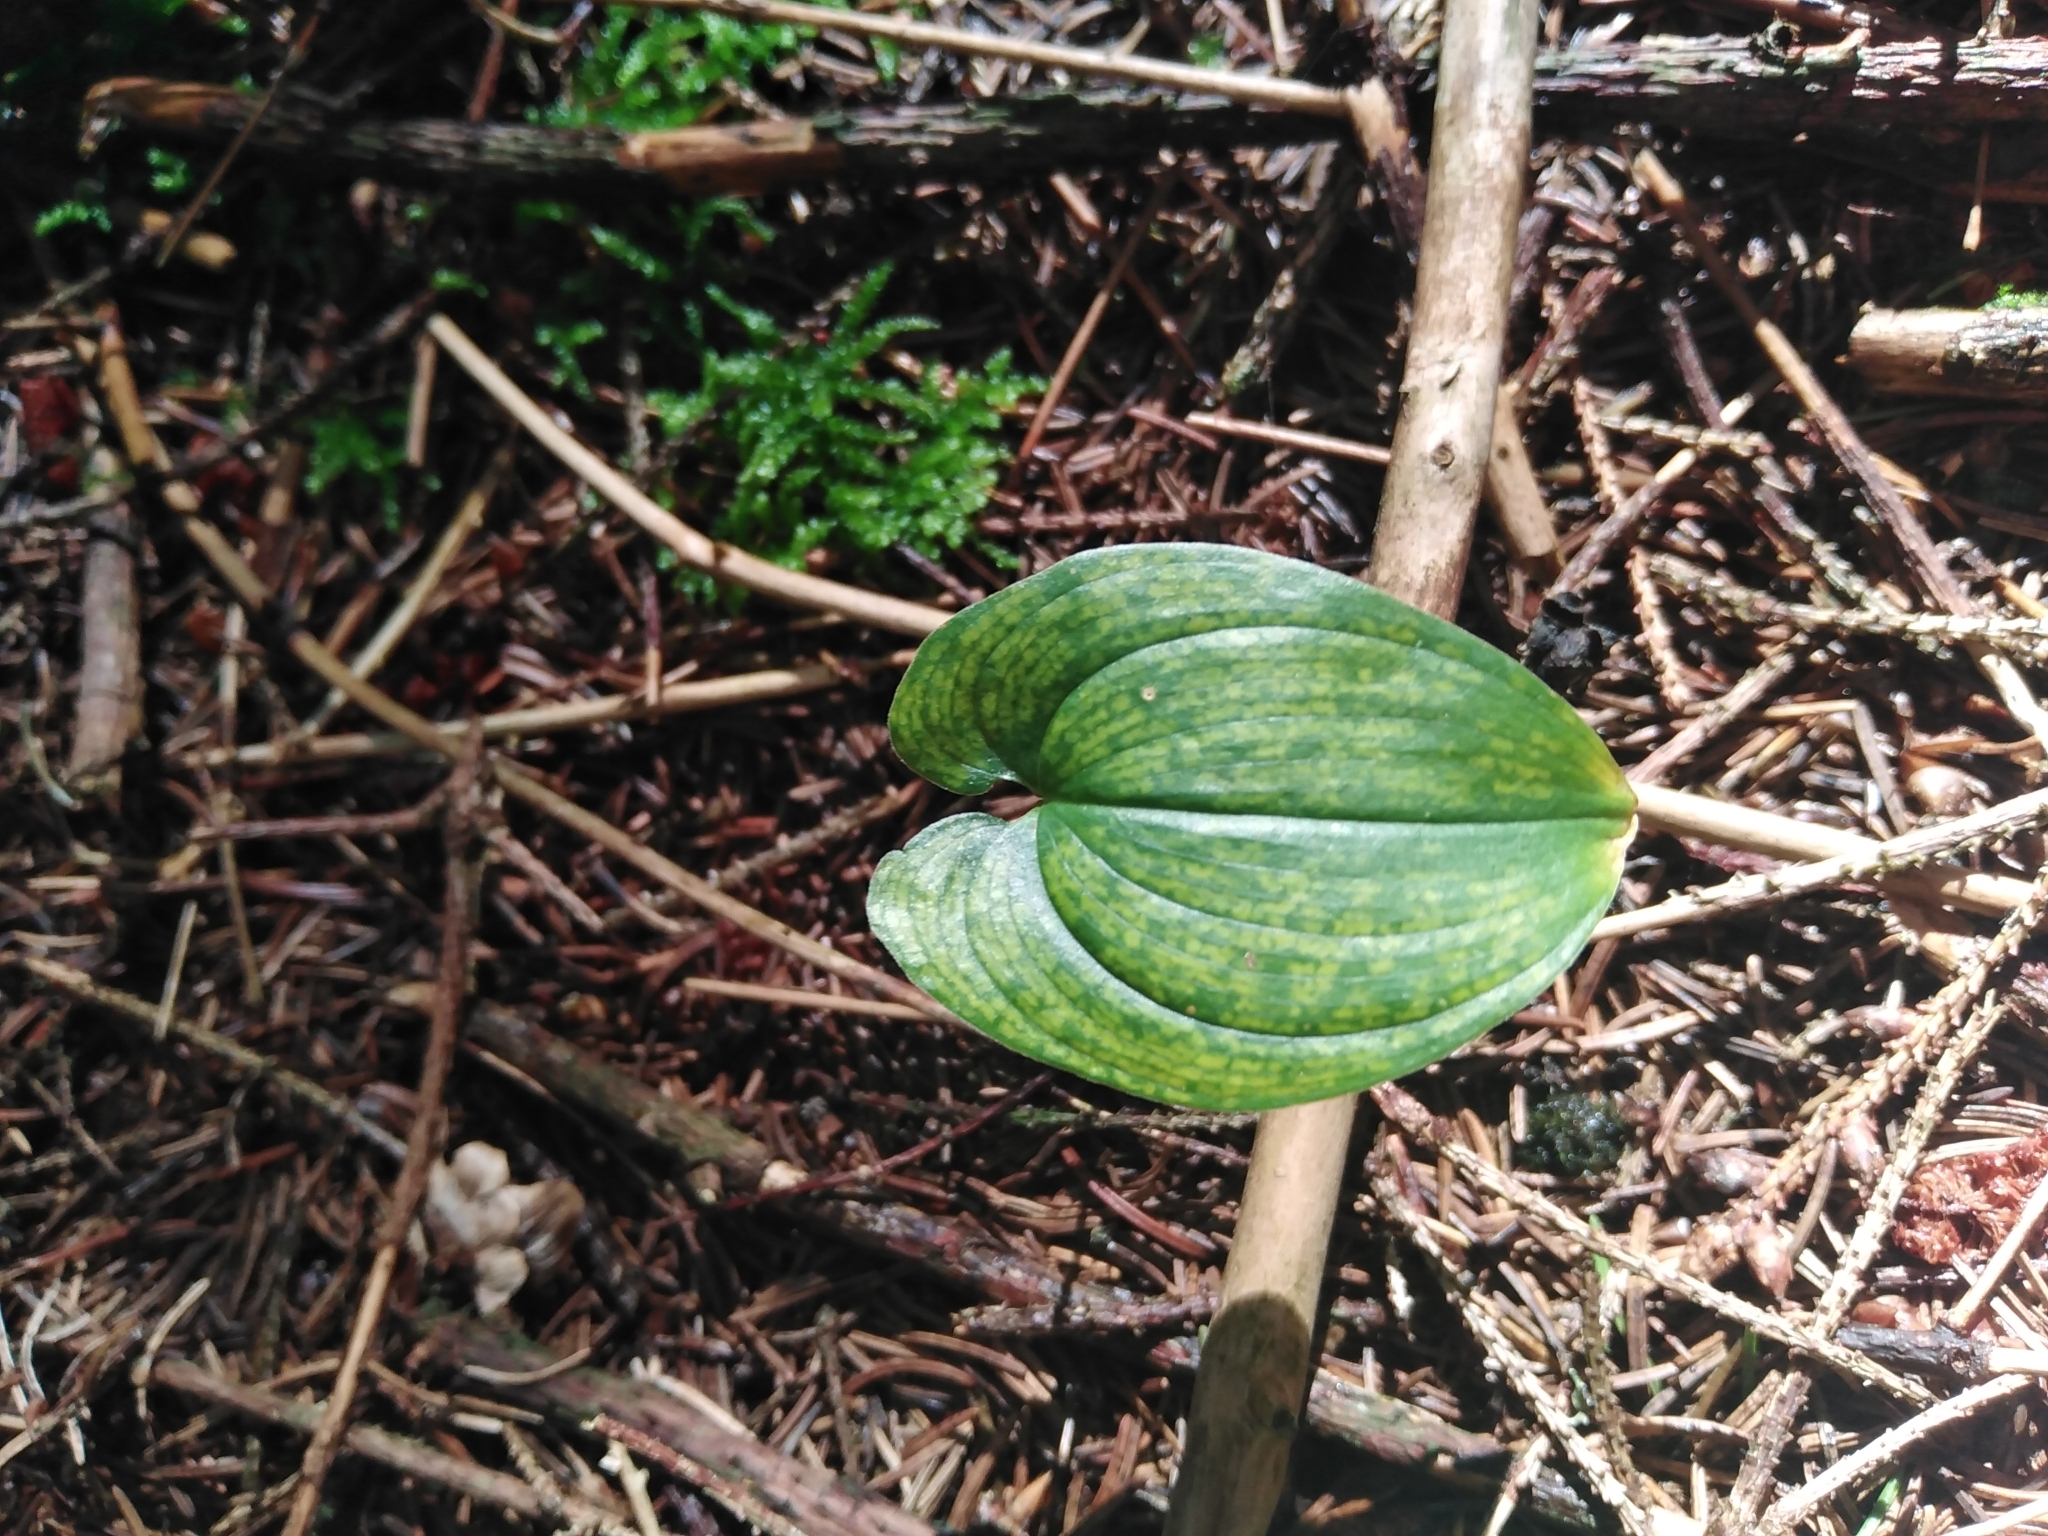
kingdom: Plantae
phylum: Tracheophyta
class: Liliopsida
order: Asparagales
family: Asparagaceae
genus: Maianthemum
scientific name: Maianthemum bifolium
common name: May lily
